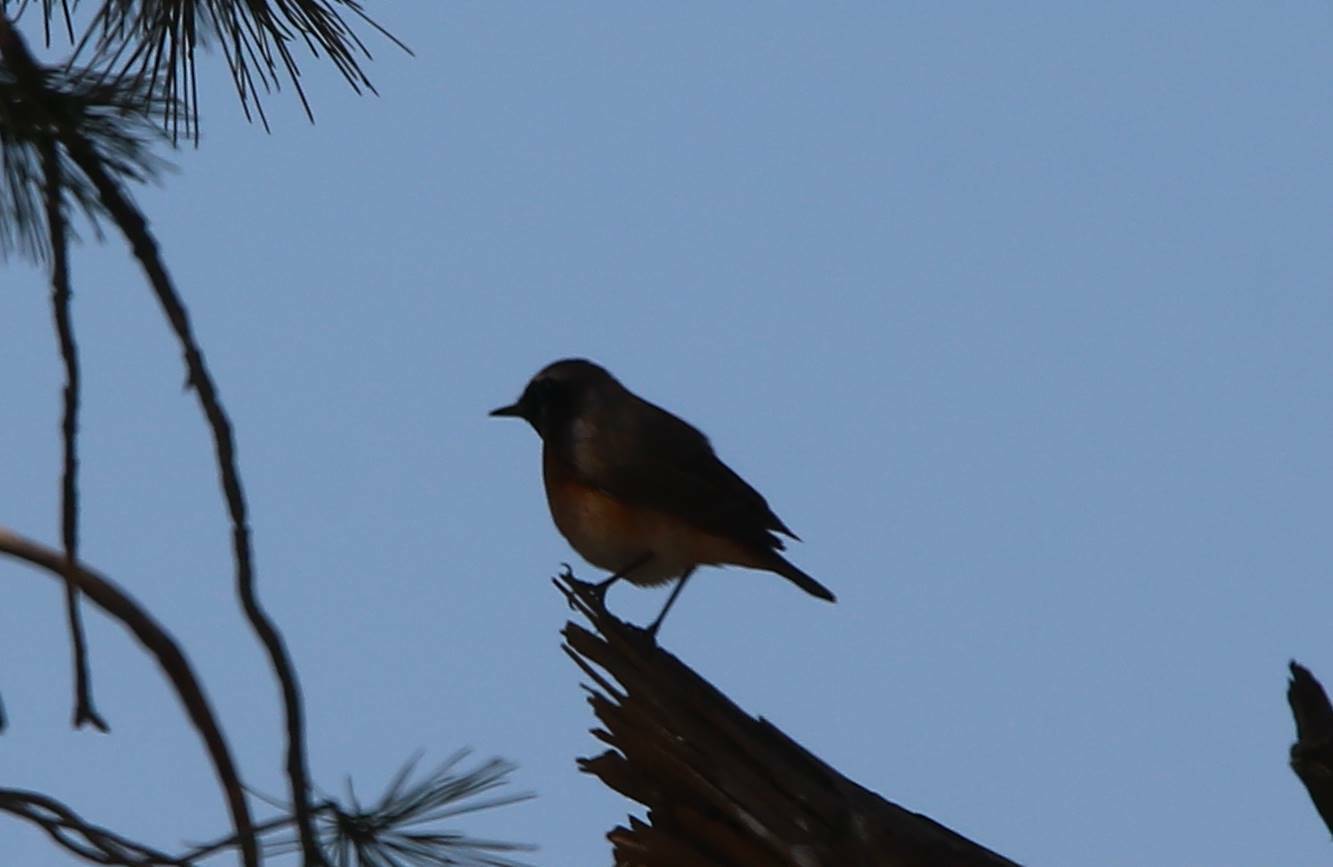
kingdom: Animalia
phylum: Chordata
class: Aves
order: Passeriformes
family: Muscicapidae
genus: Phoenicurus
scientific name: Phoenicurus phoenicurus
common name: Common redstart
